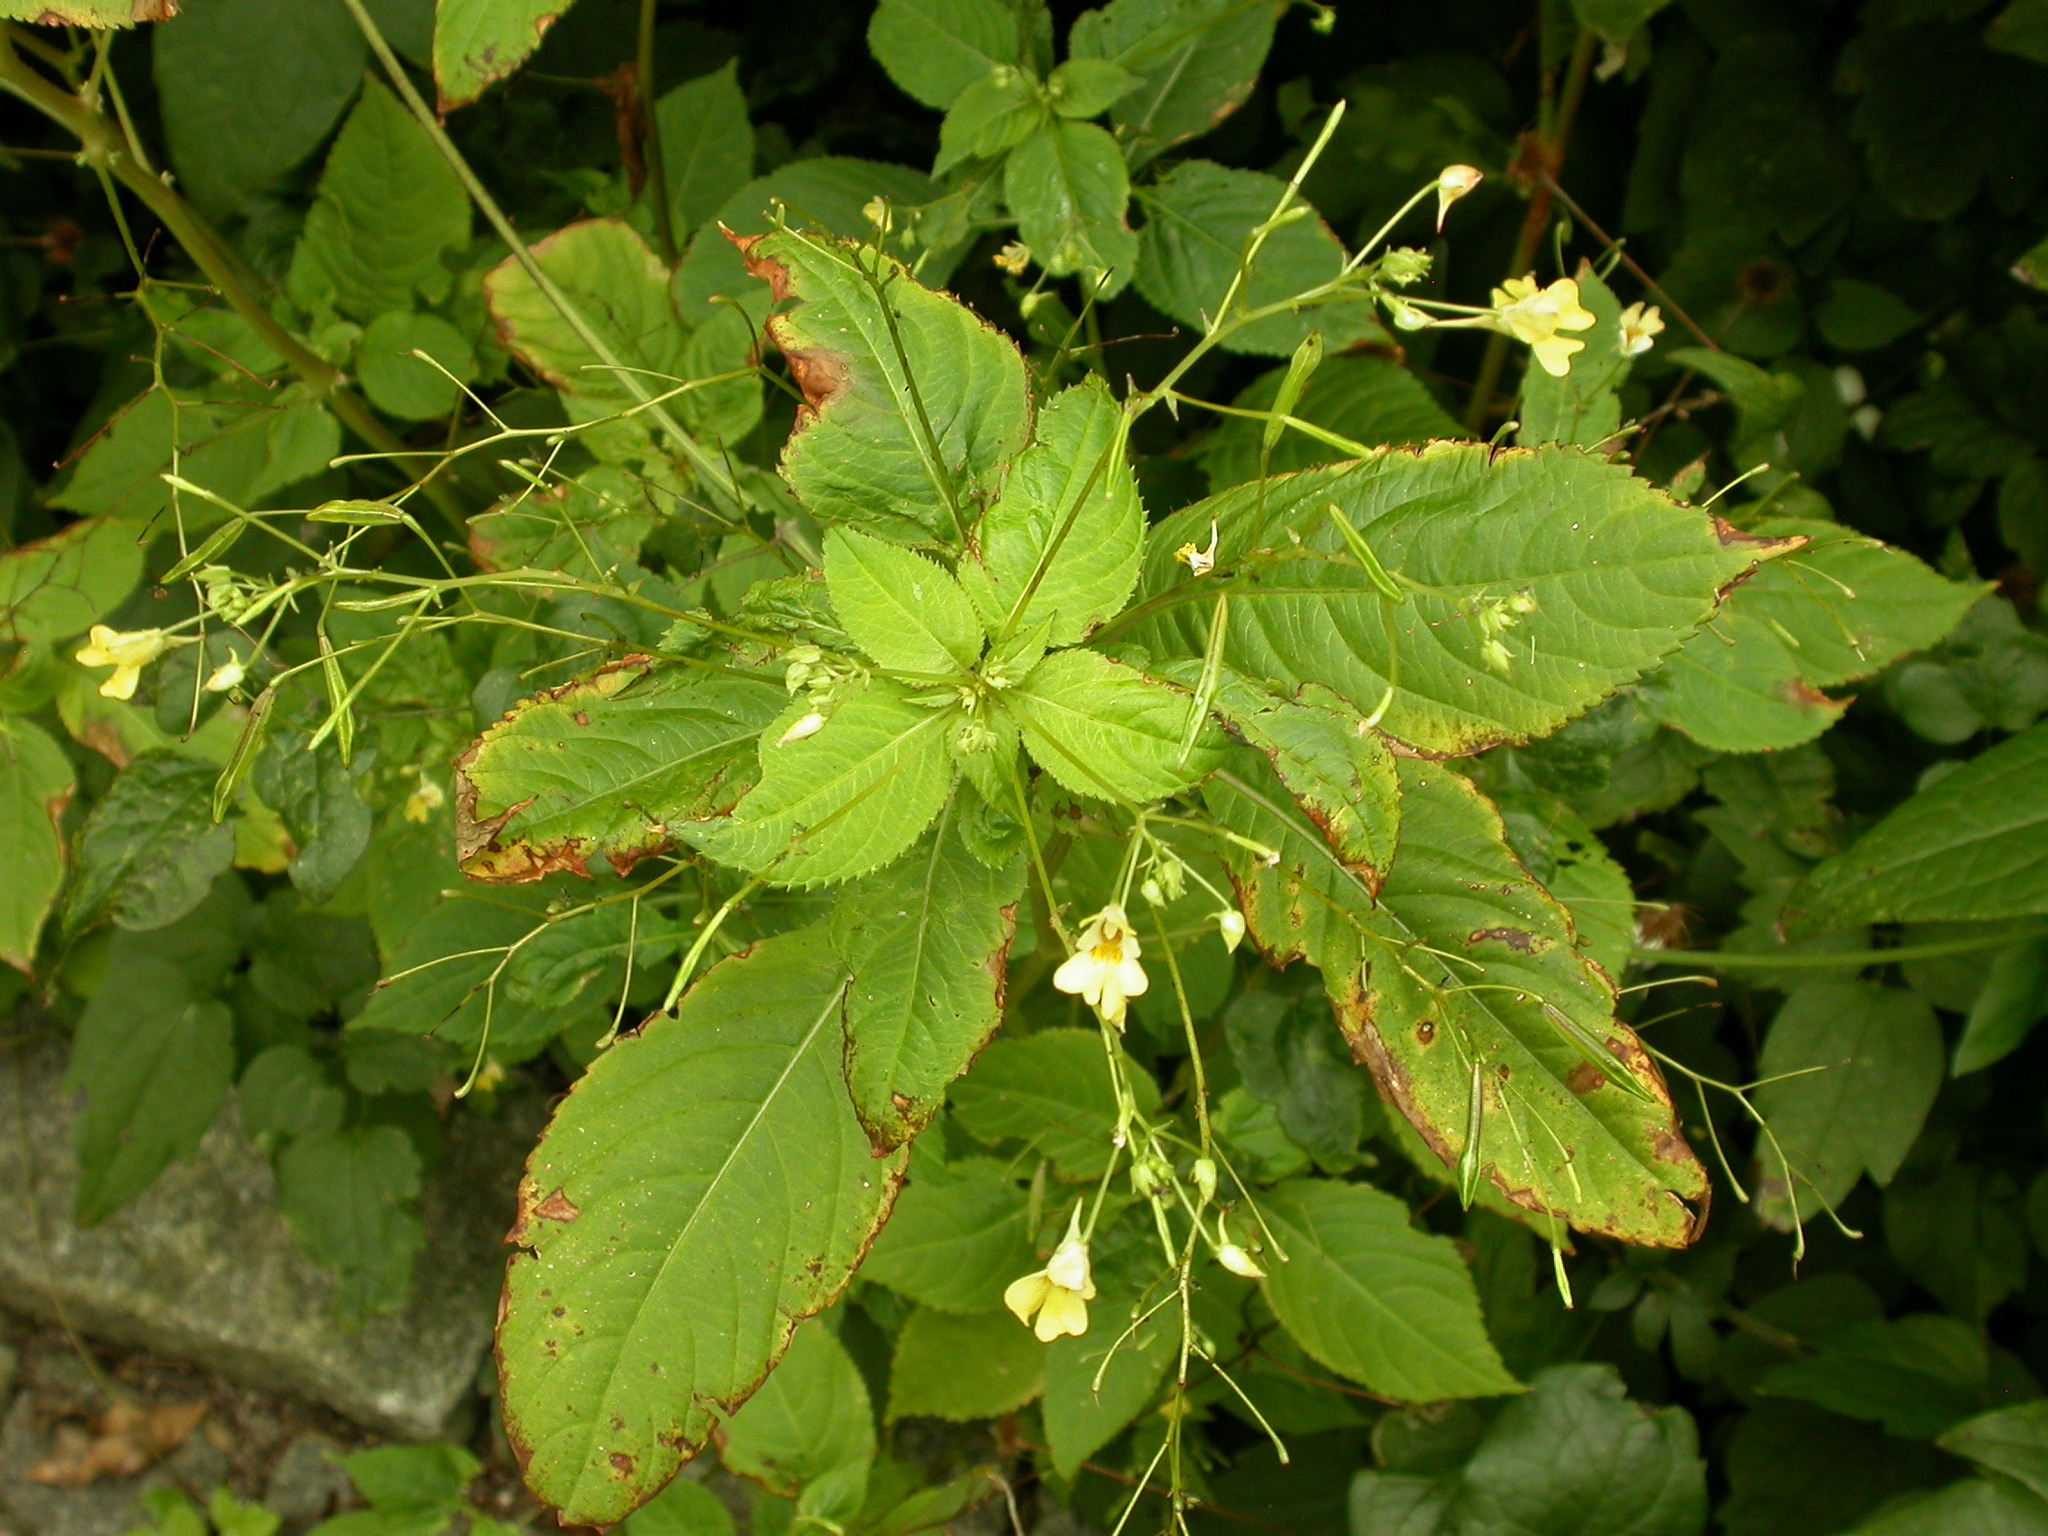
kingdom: Plantae
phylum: Tracheophyta
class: Magnoliopsida
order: Ericales
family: Balsaminaceae
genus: Impatiens
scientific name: Impatiens parviflora
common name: Small balsam
